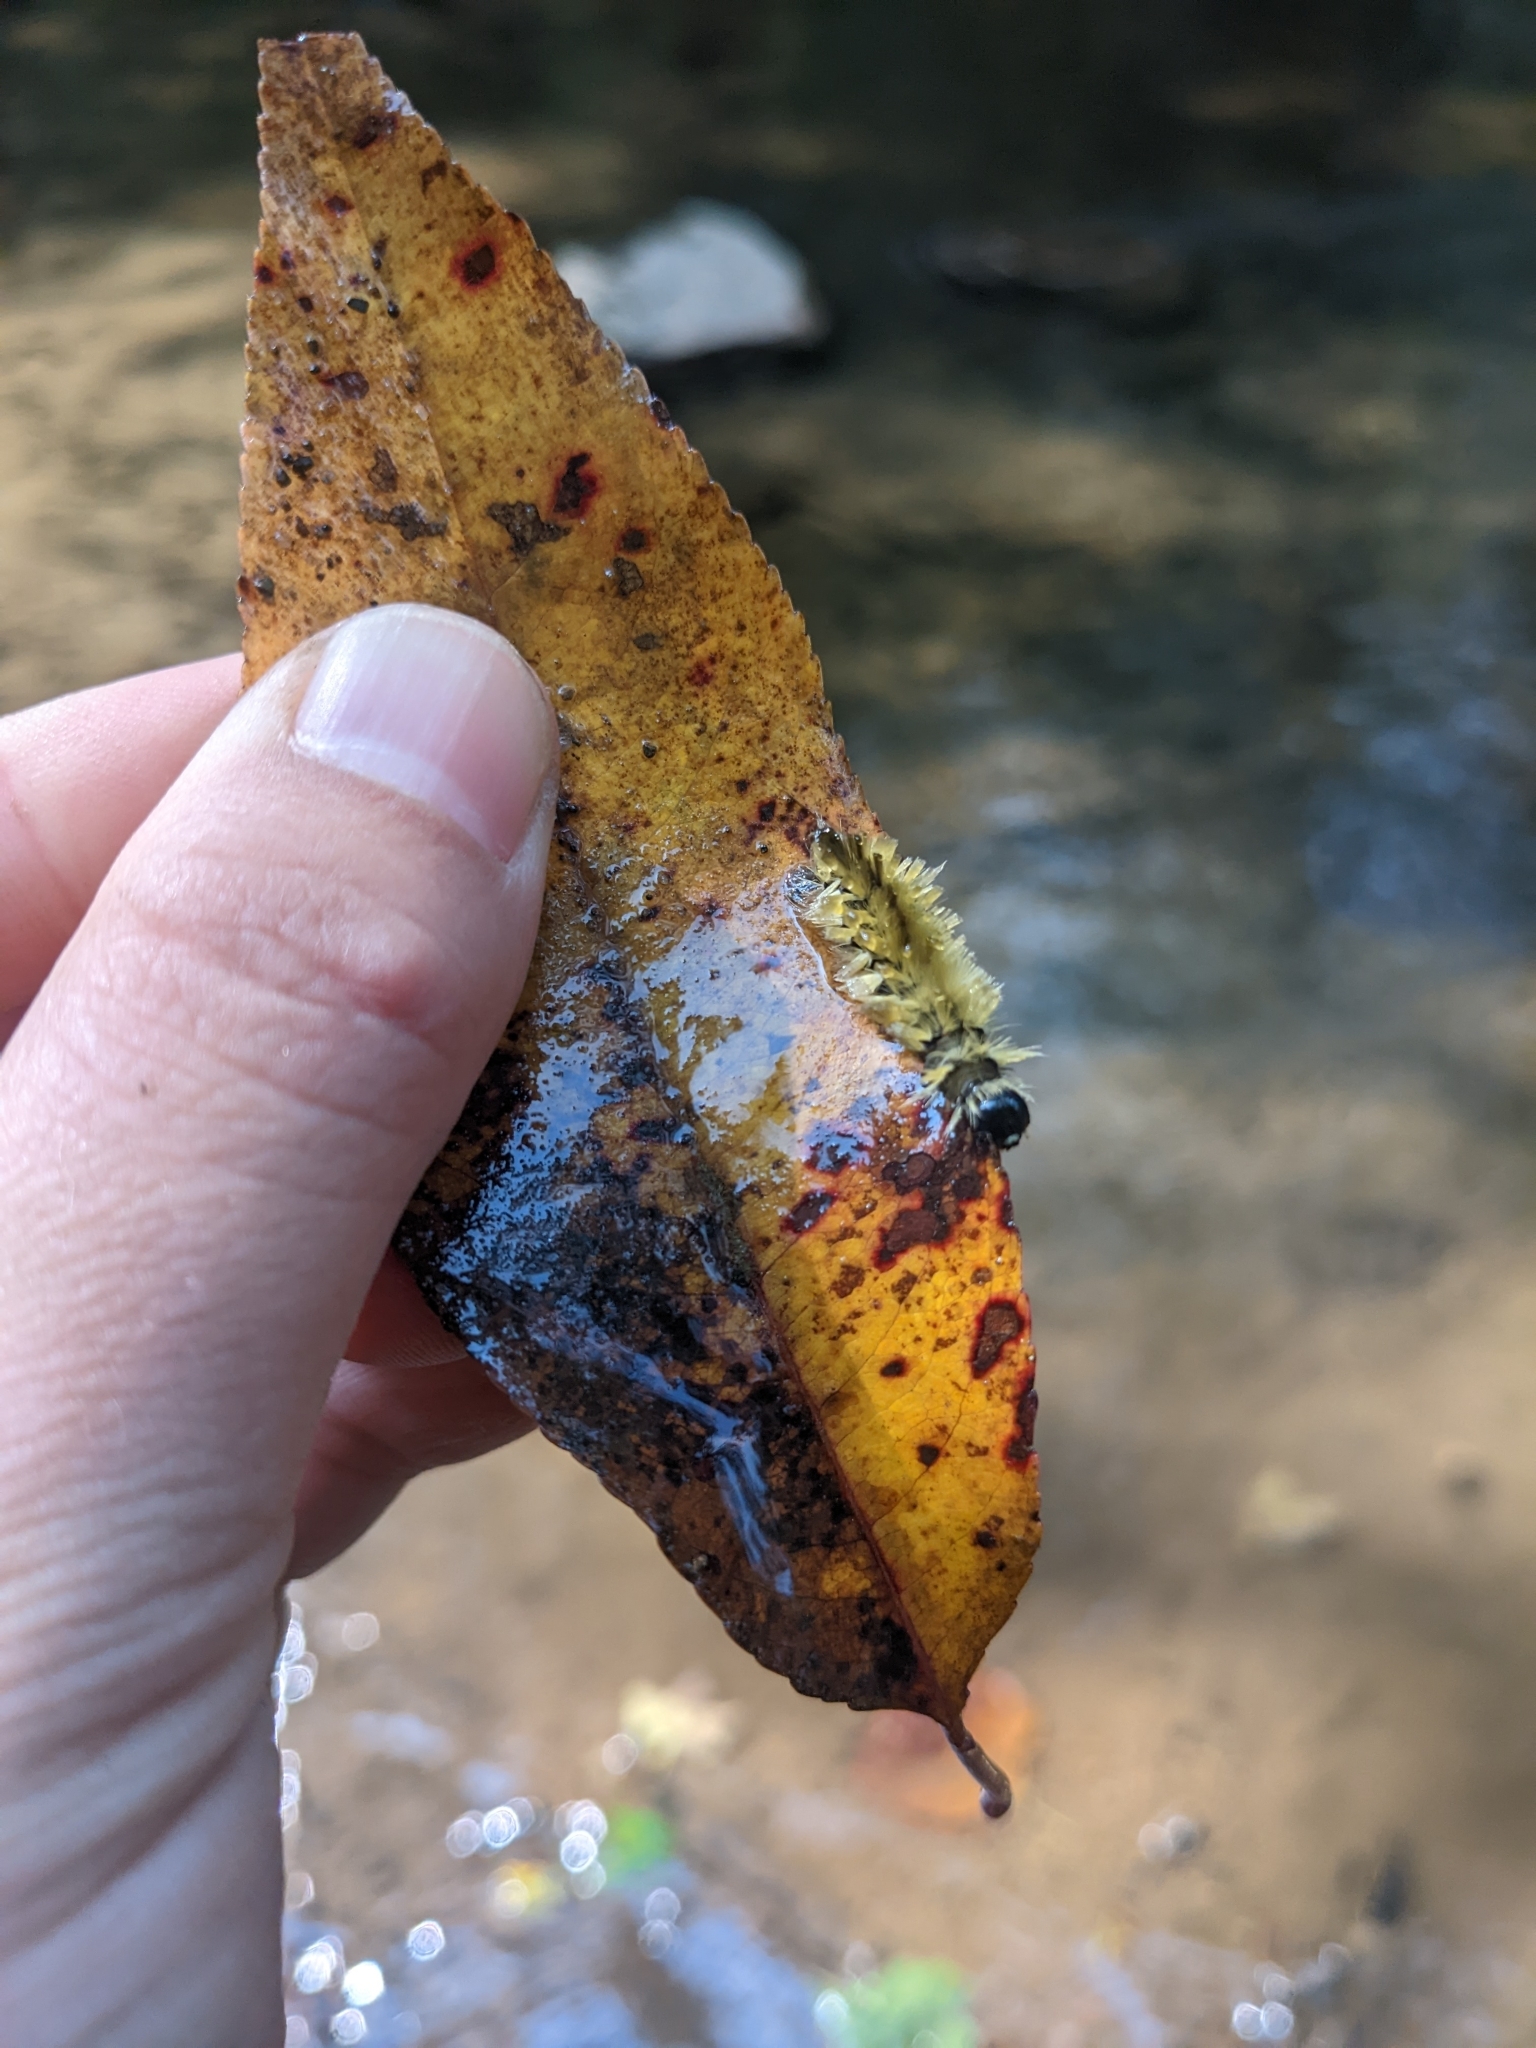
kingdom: Animalia
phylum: Arthropoda
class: Insecta
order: Lepidoptera
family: Erebidae
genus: Halysidota
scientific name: Halysidota tessellaris
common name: Banded tussock moth
